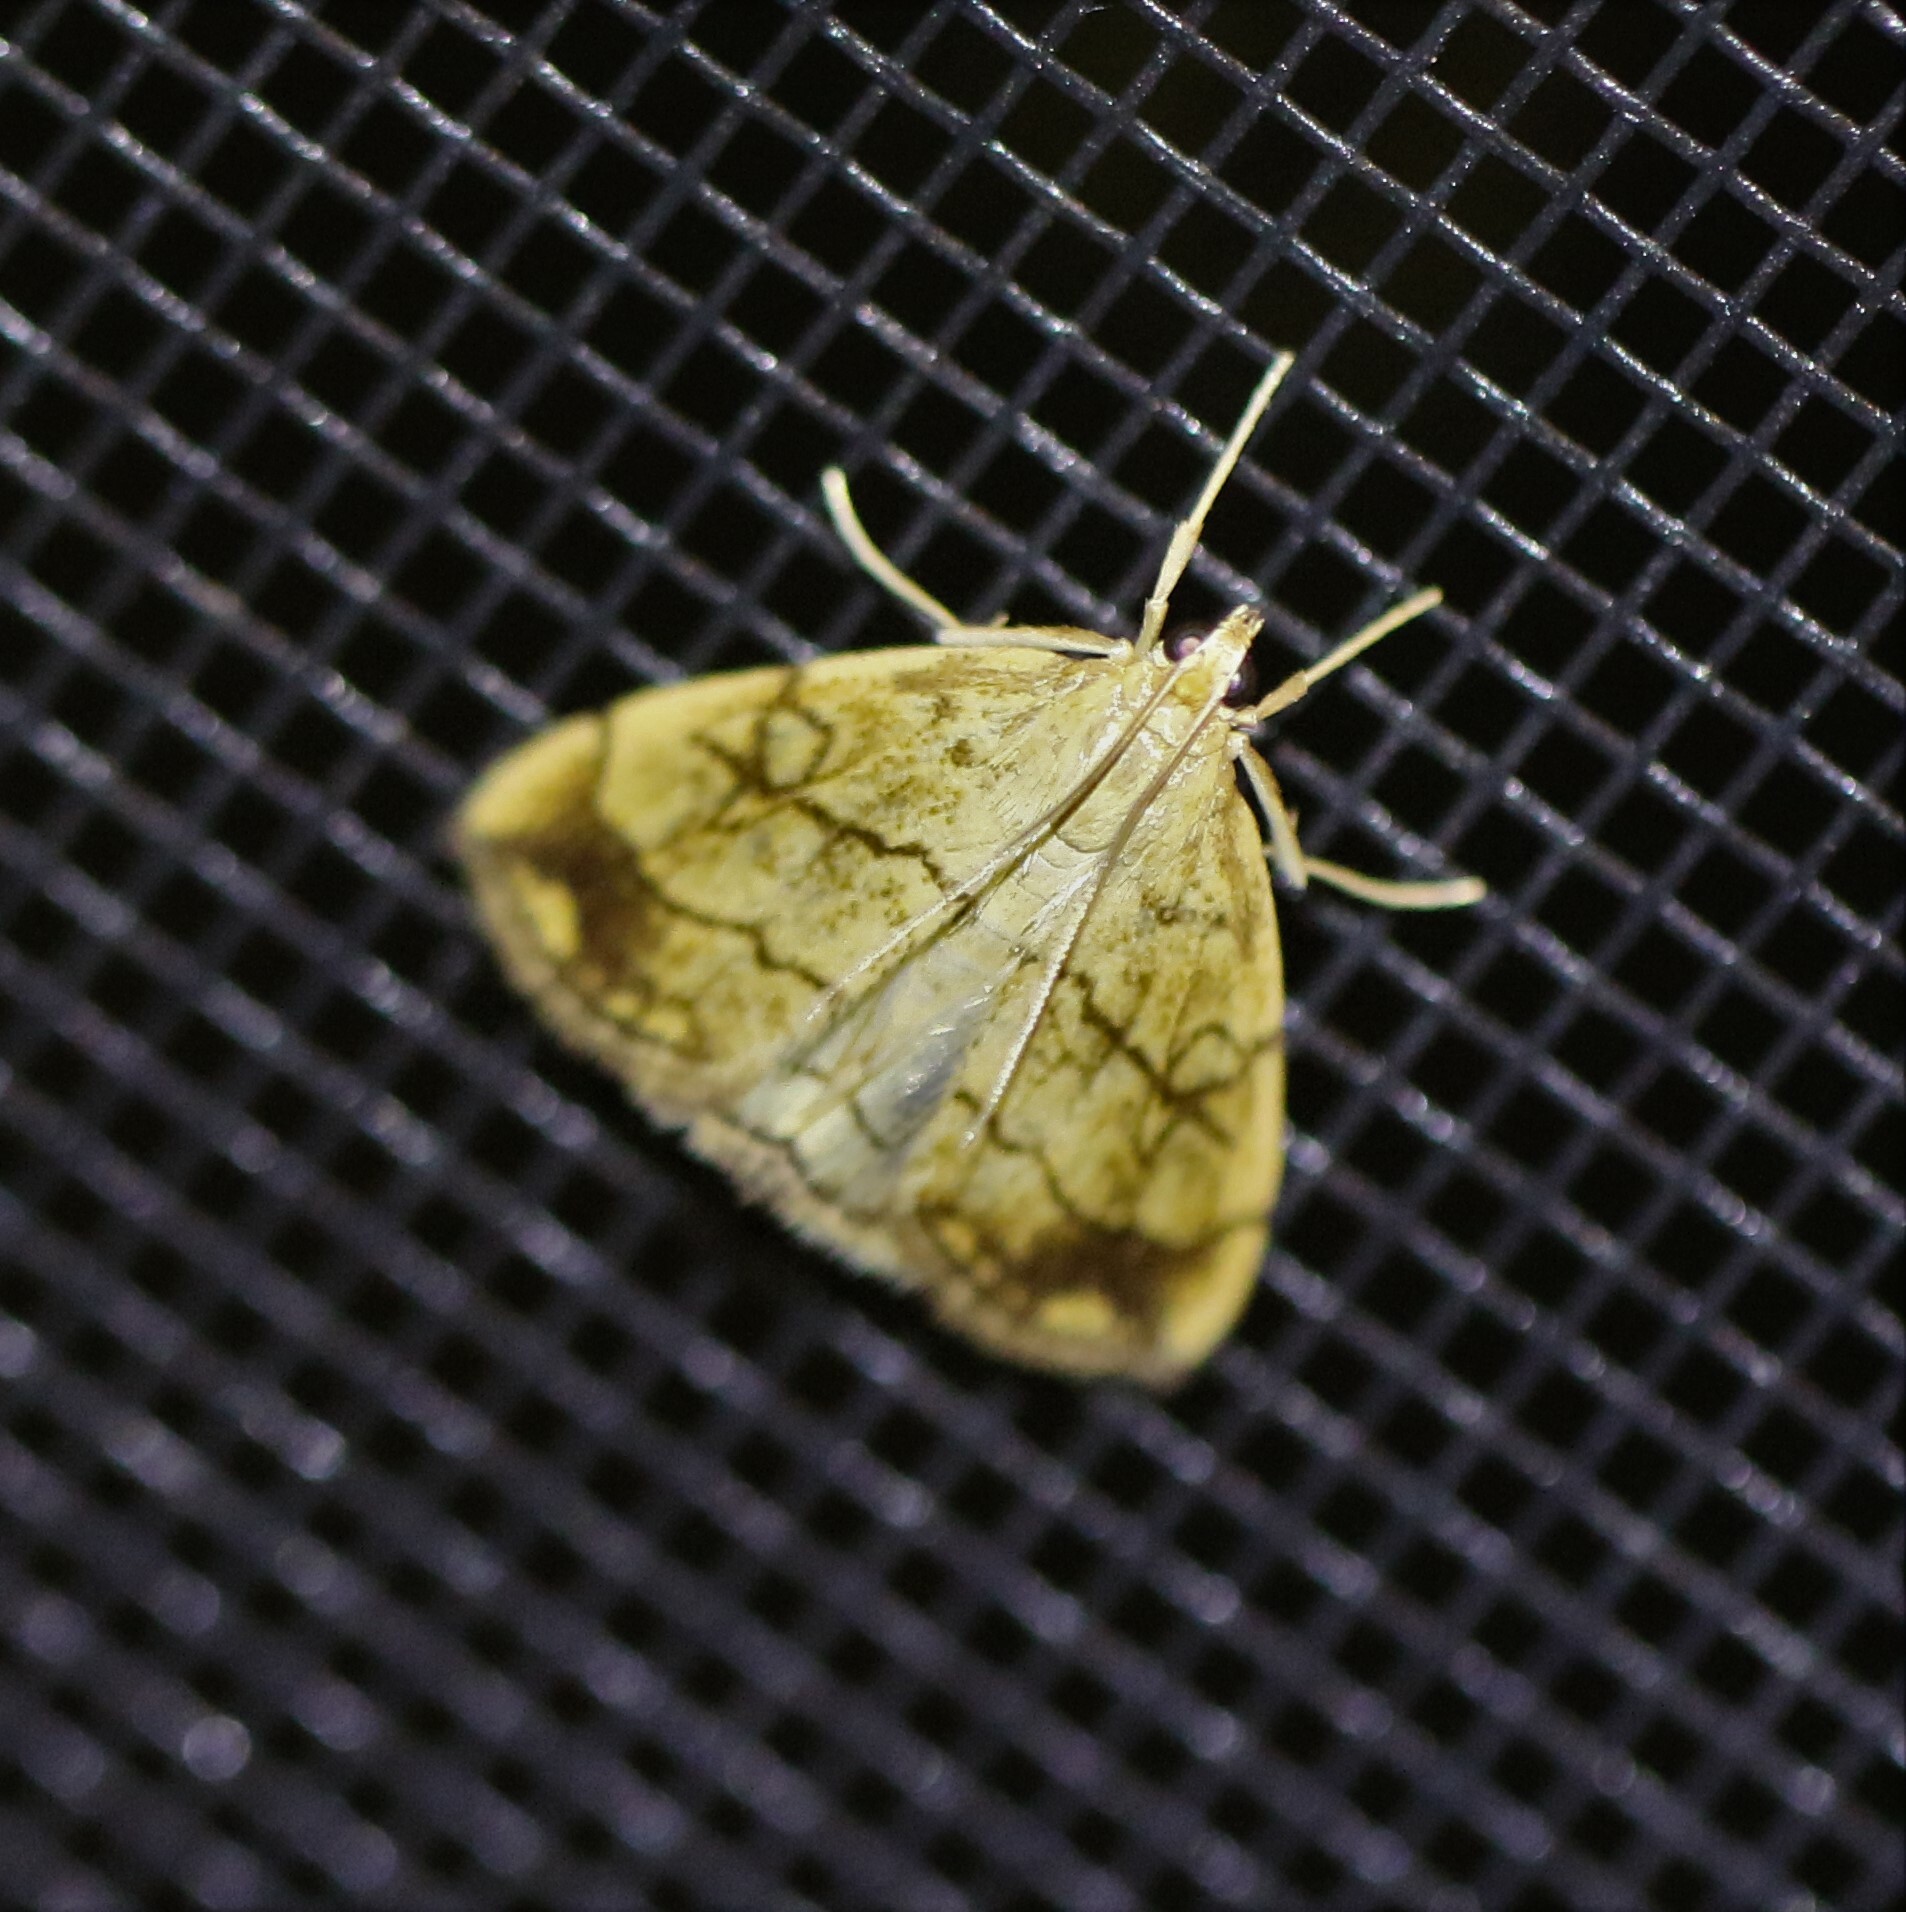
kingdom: Animalia
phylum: Arthropoda
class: Insecta
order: Lepidoptera
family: Crambidae
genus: Evergestis
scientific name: Evergestis pallidata
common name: Chequered pearl
